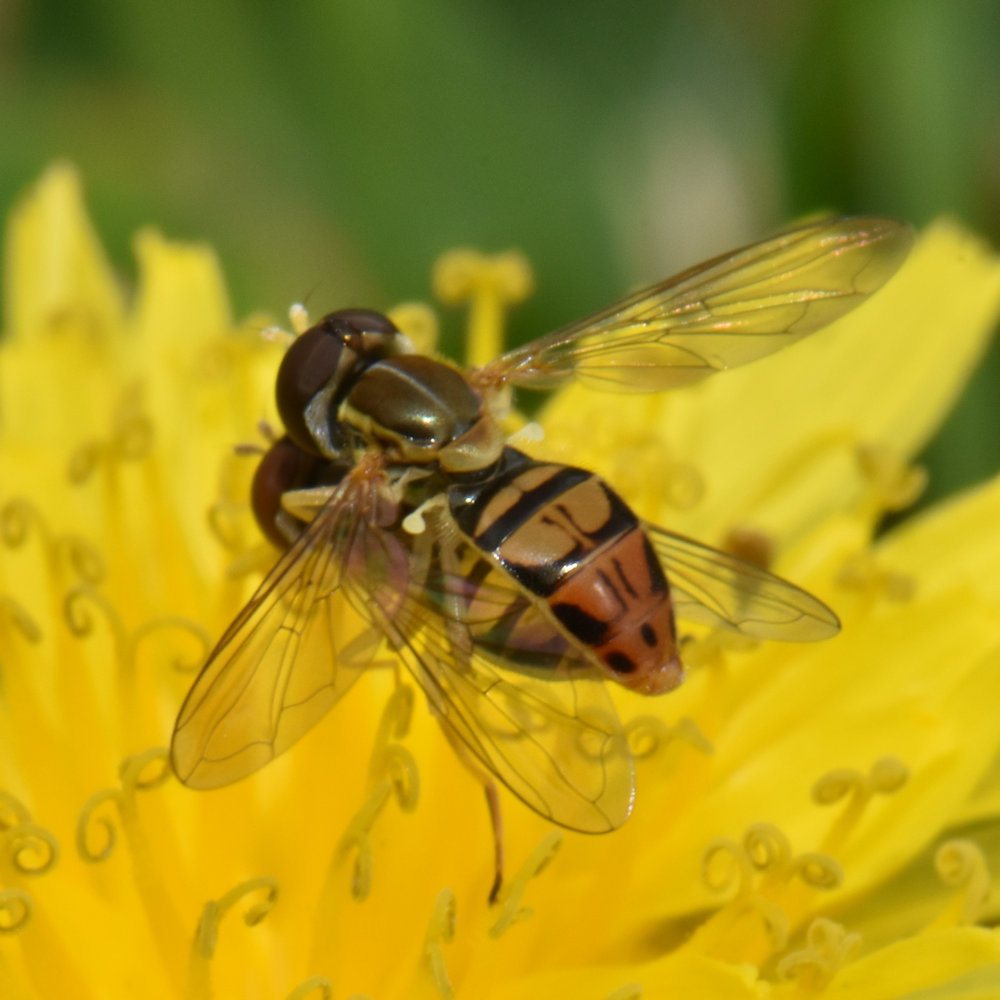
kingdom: Animalia
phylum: Arthropoda
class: Insecta
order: Diptera
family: Syrphidae
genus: Toxomerus
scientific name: Toxomerus marginatus
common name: Syrphid fly
